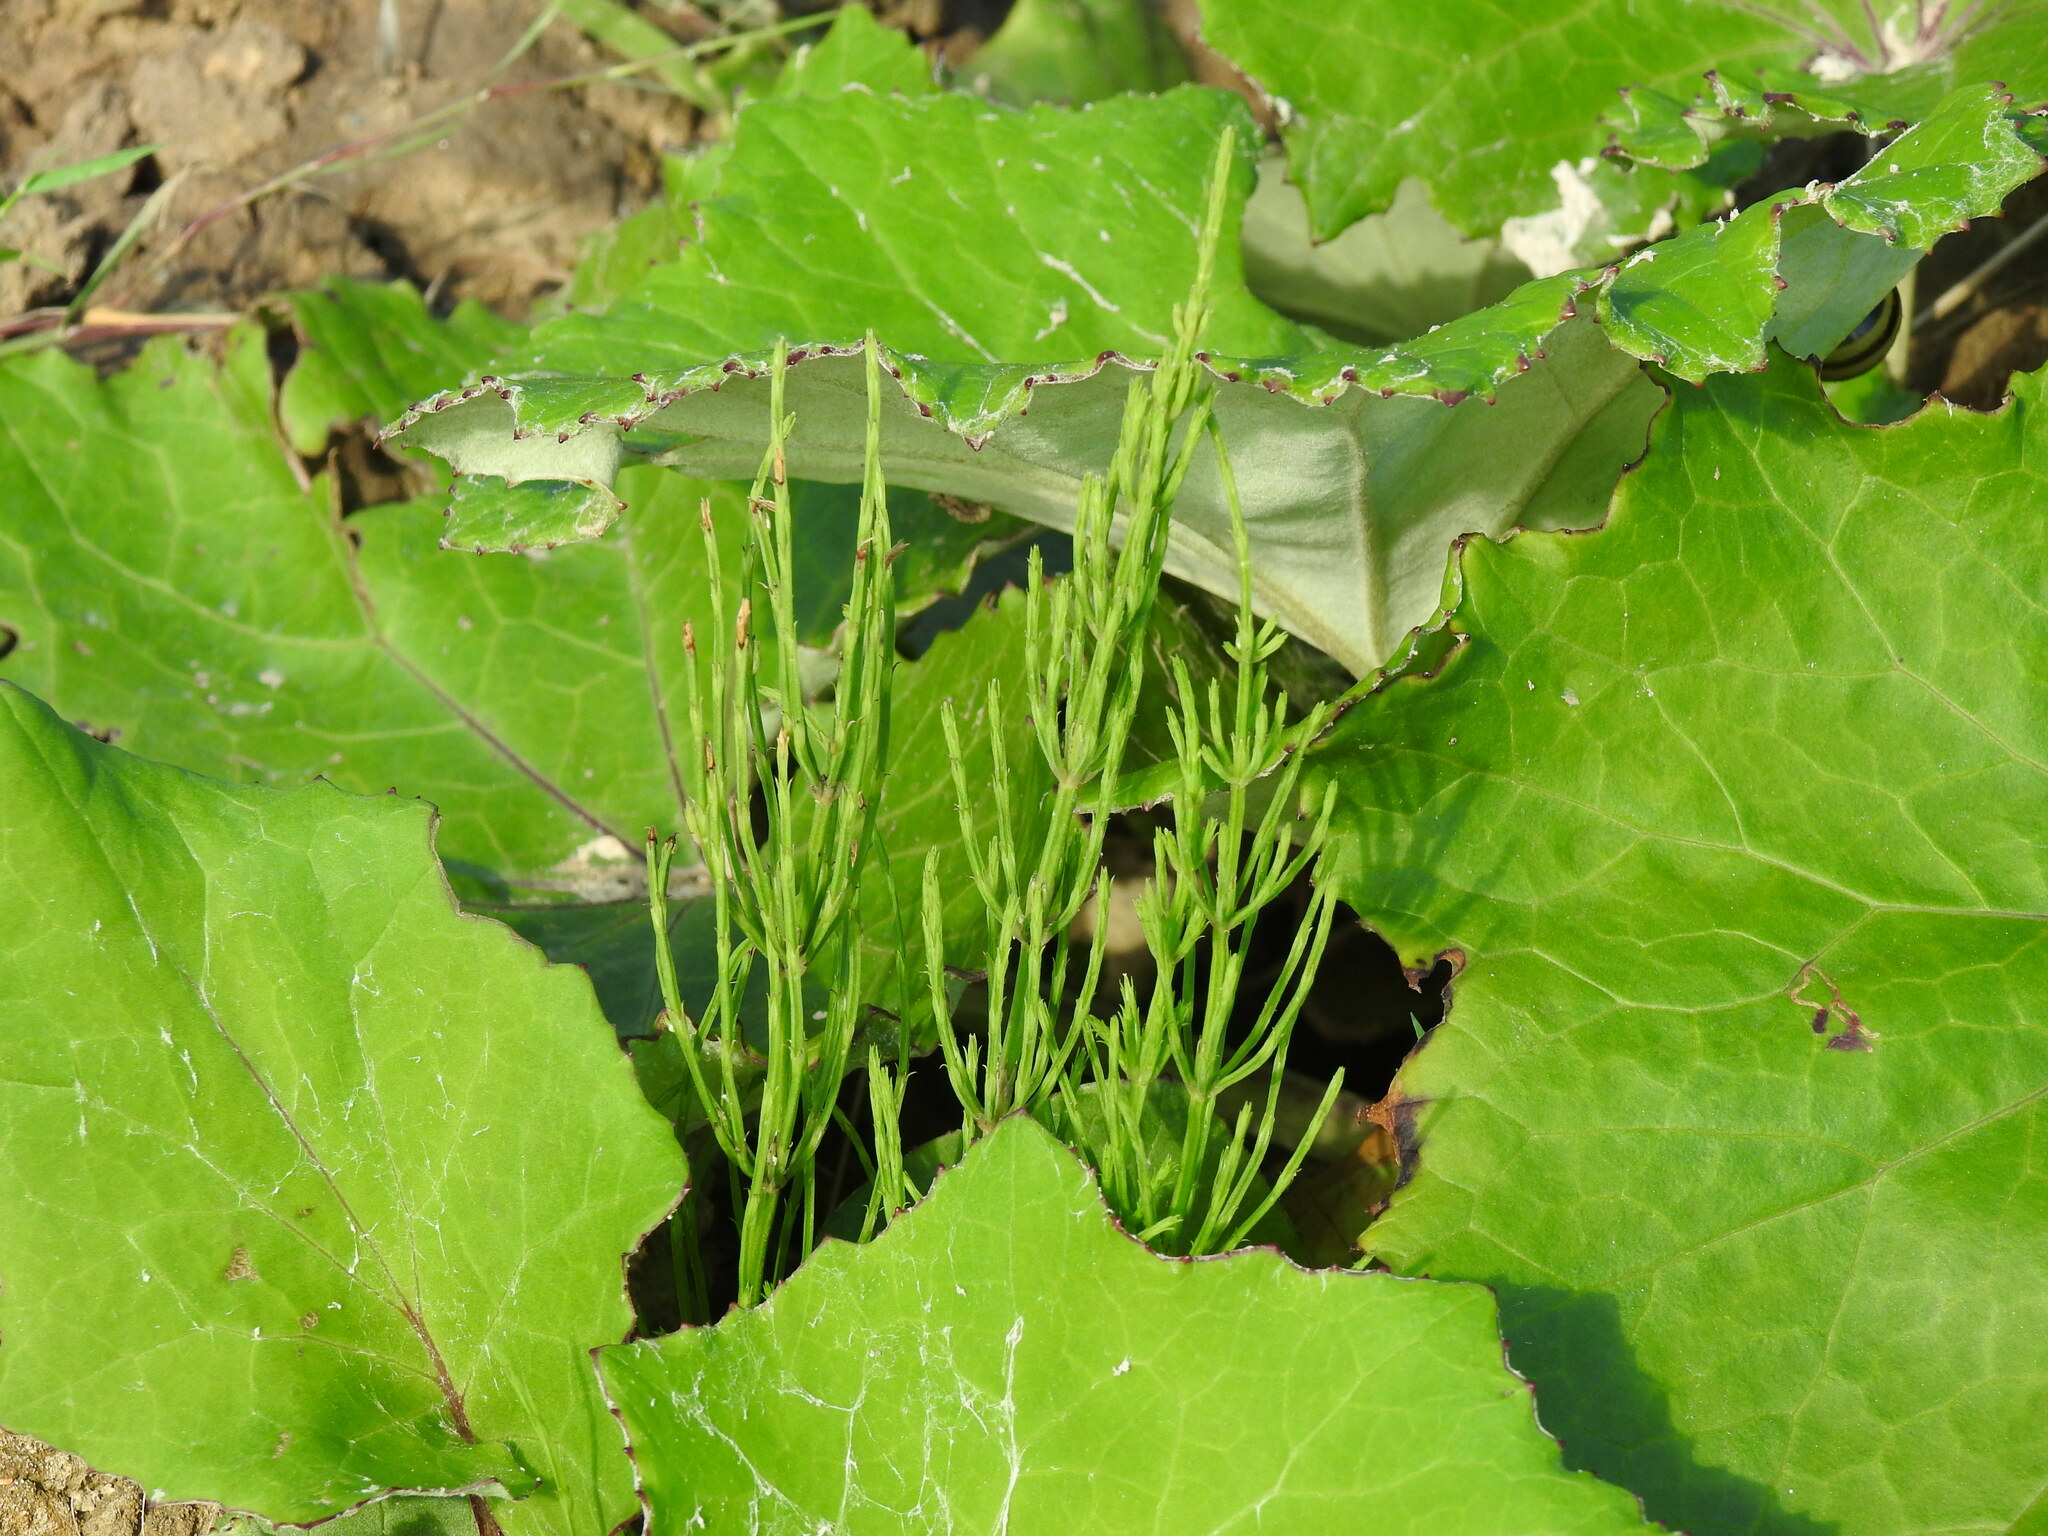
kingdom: Plantae
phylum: Tracheophyta
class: Polypodiopsida
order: Equisetales
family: Equisetaceae
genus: Equisetum
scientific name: Equisetum arvense
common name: Field horsetail
